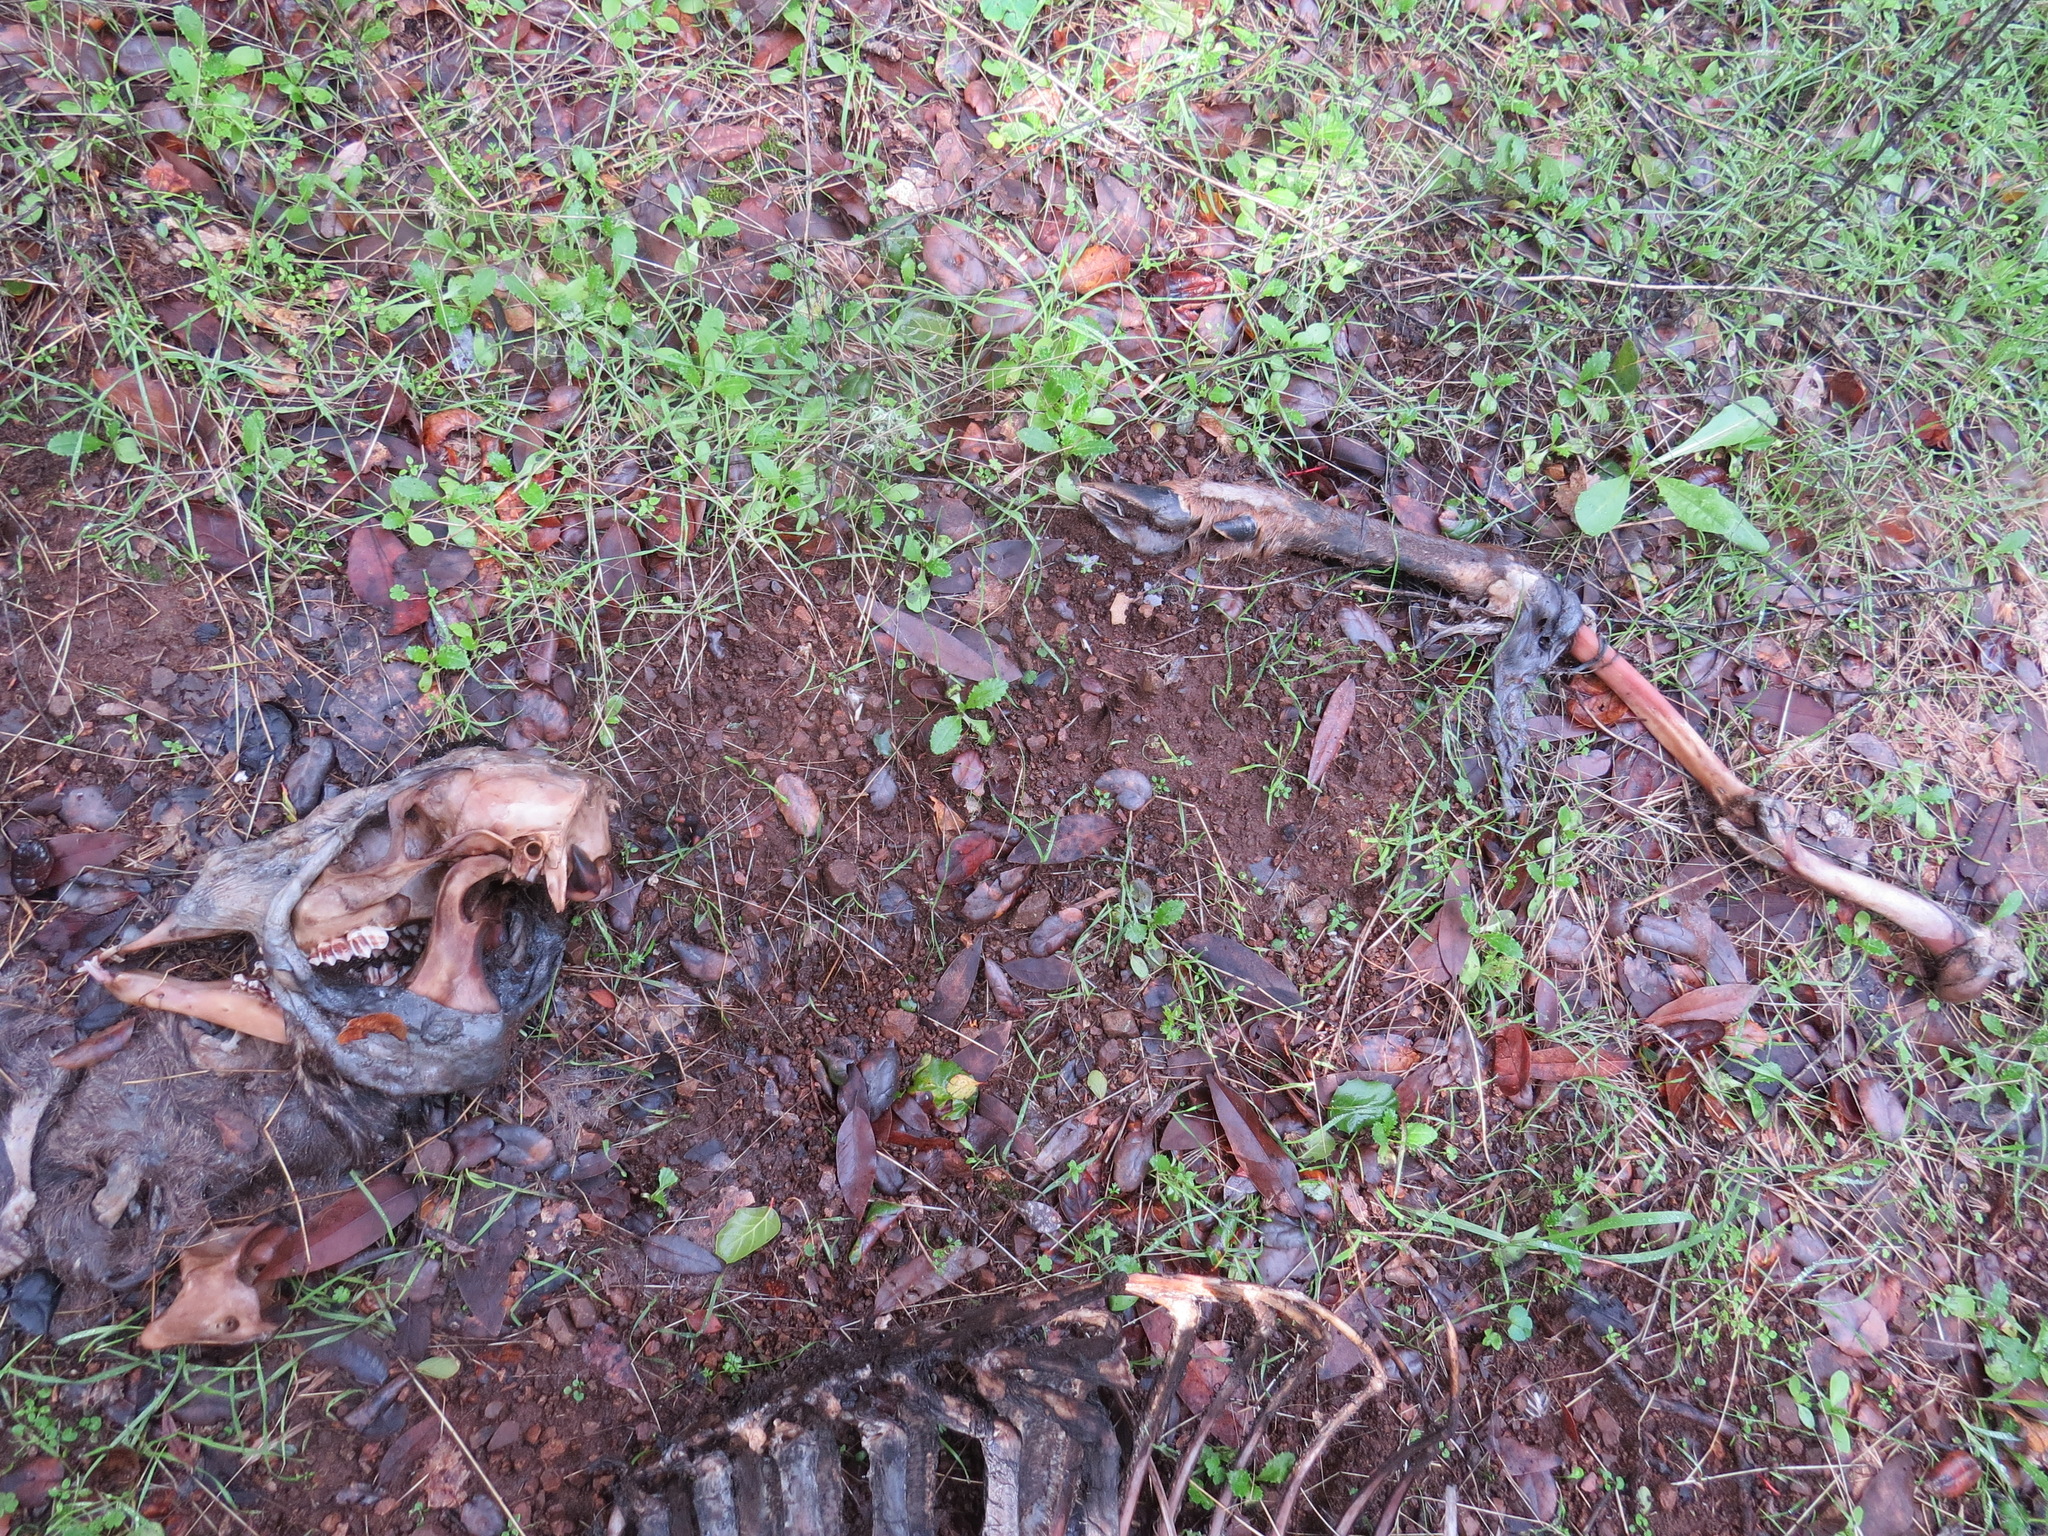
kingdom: Animalia
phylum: Chordata
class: Mammalia
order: Artiodactyla
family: Cervidae
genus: Odocoileus
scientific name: Odocoileus hemionus
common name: Mule deer
